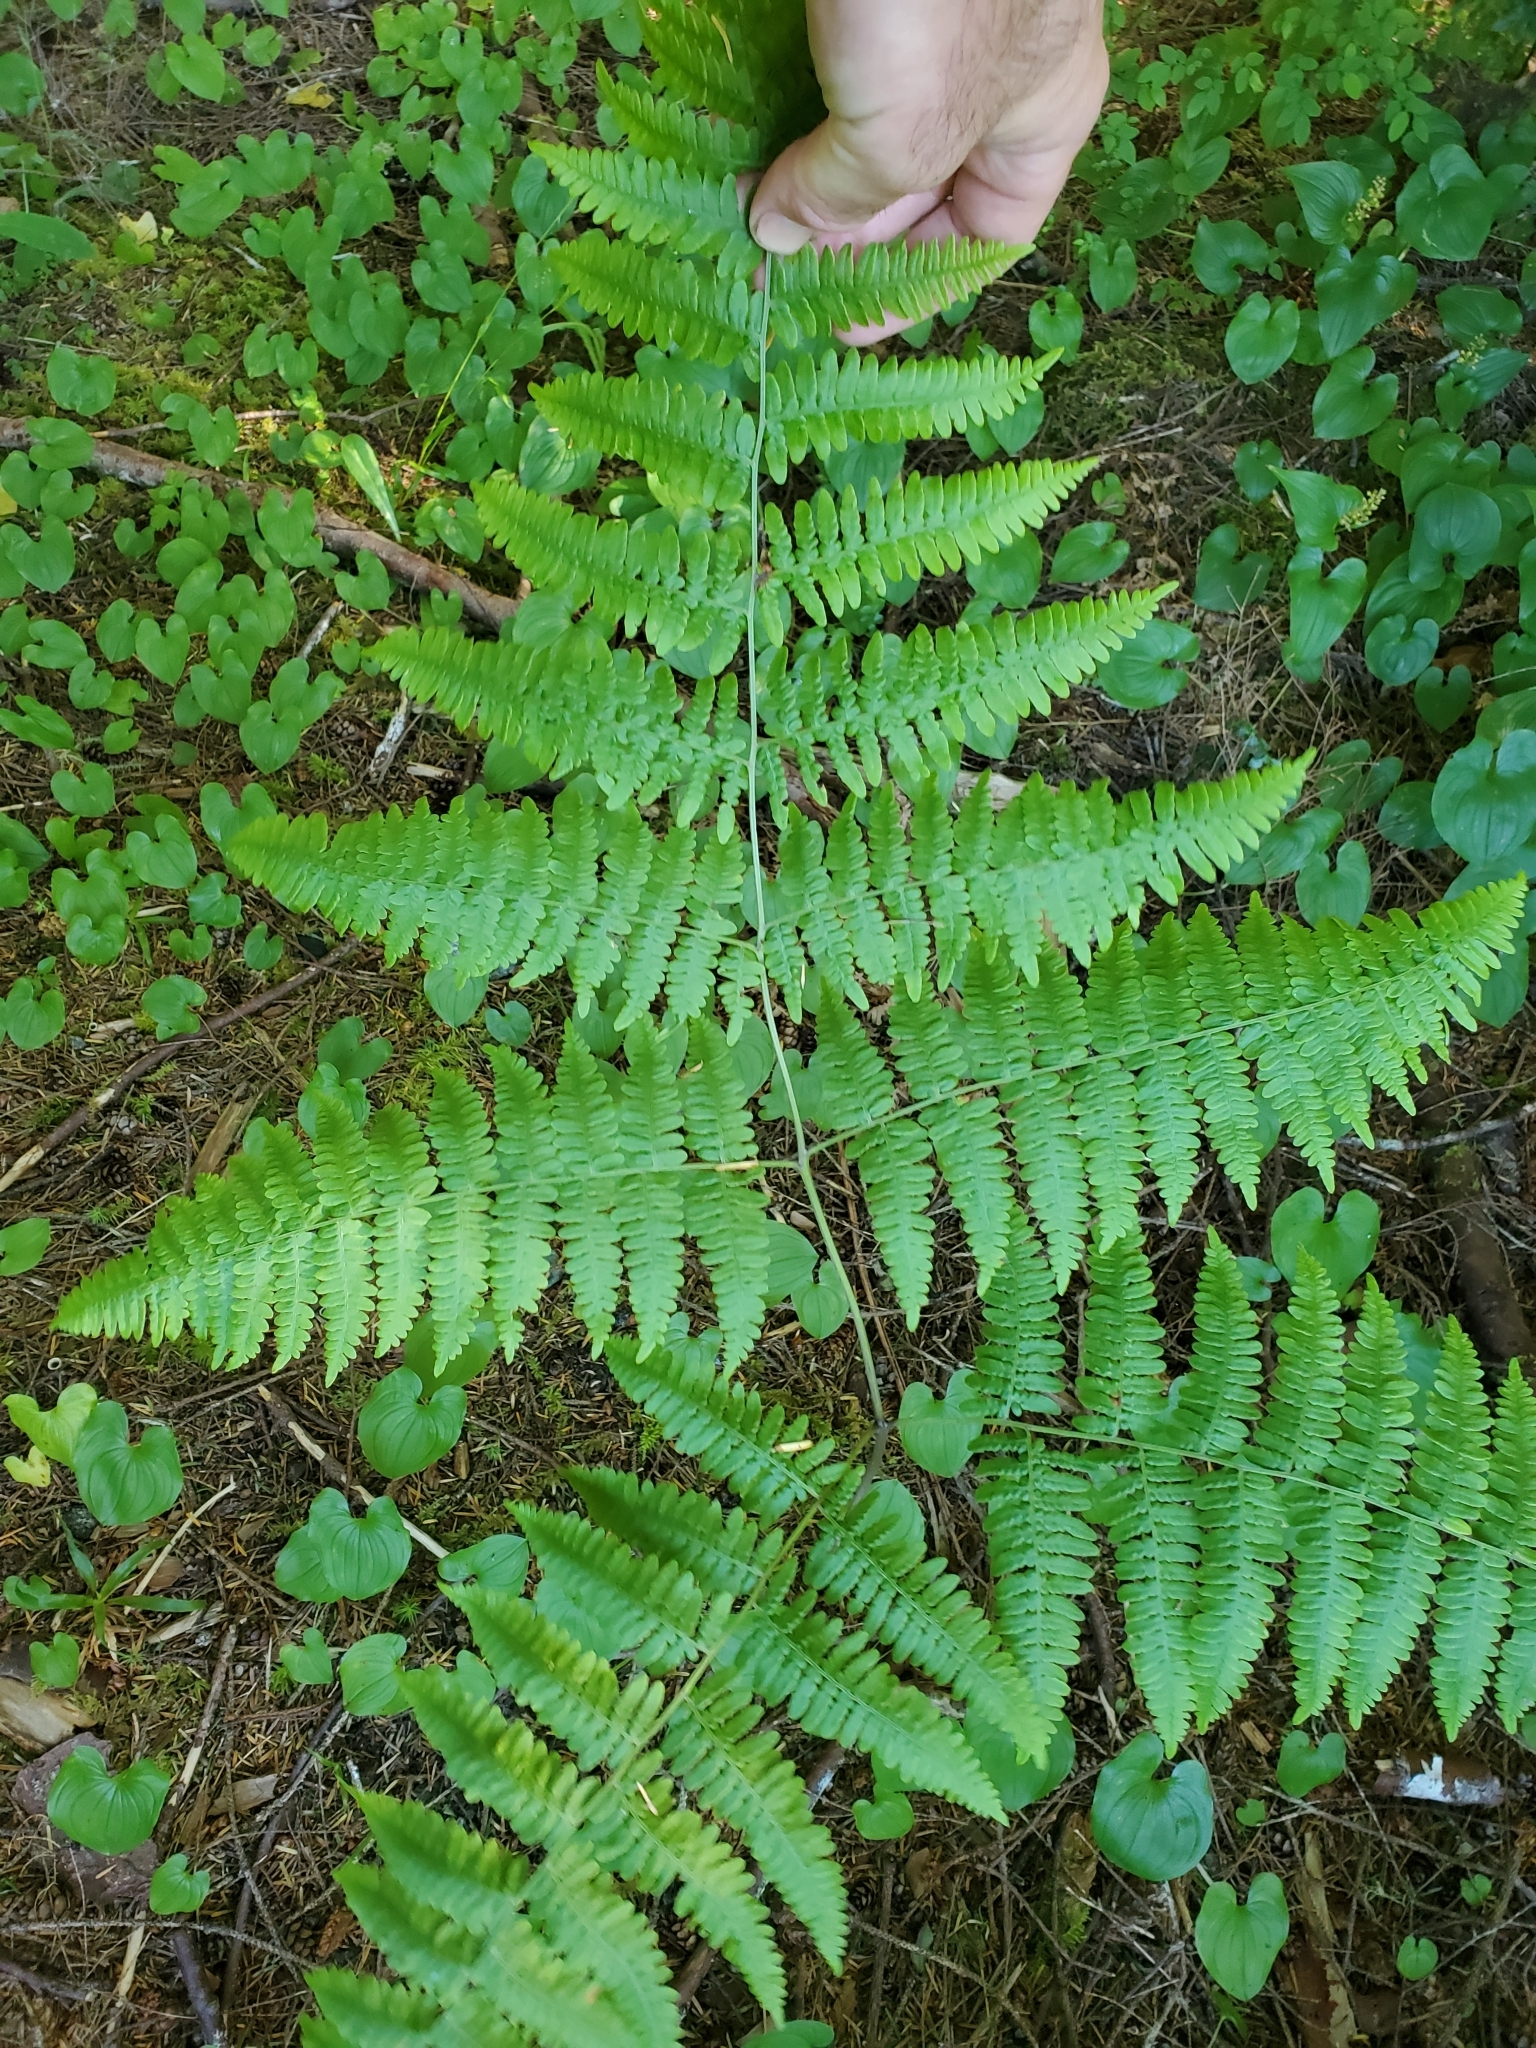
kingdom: Plantae
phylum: Tracheophyta
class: Polypodiopsida
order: Polypodiales
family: Dennstaedtiaceae
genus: Pteridium
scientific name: Pteridium aquilinum
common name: Bracken
